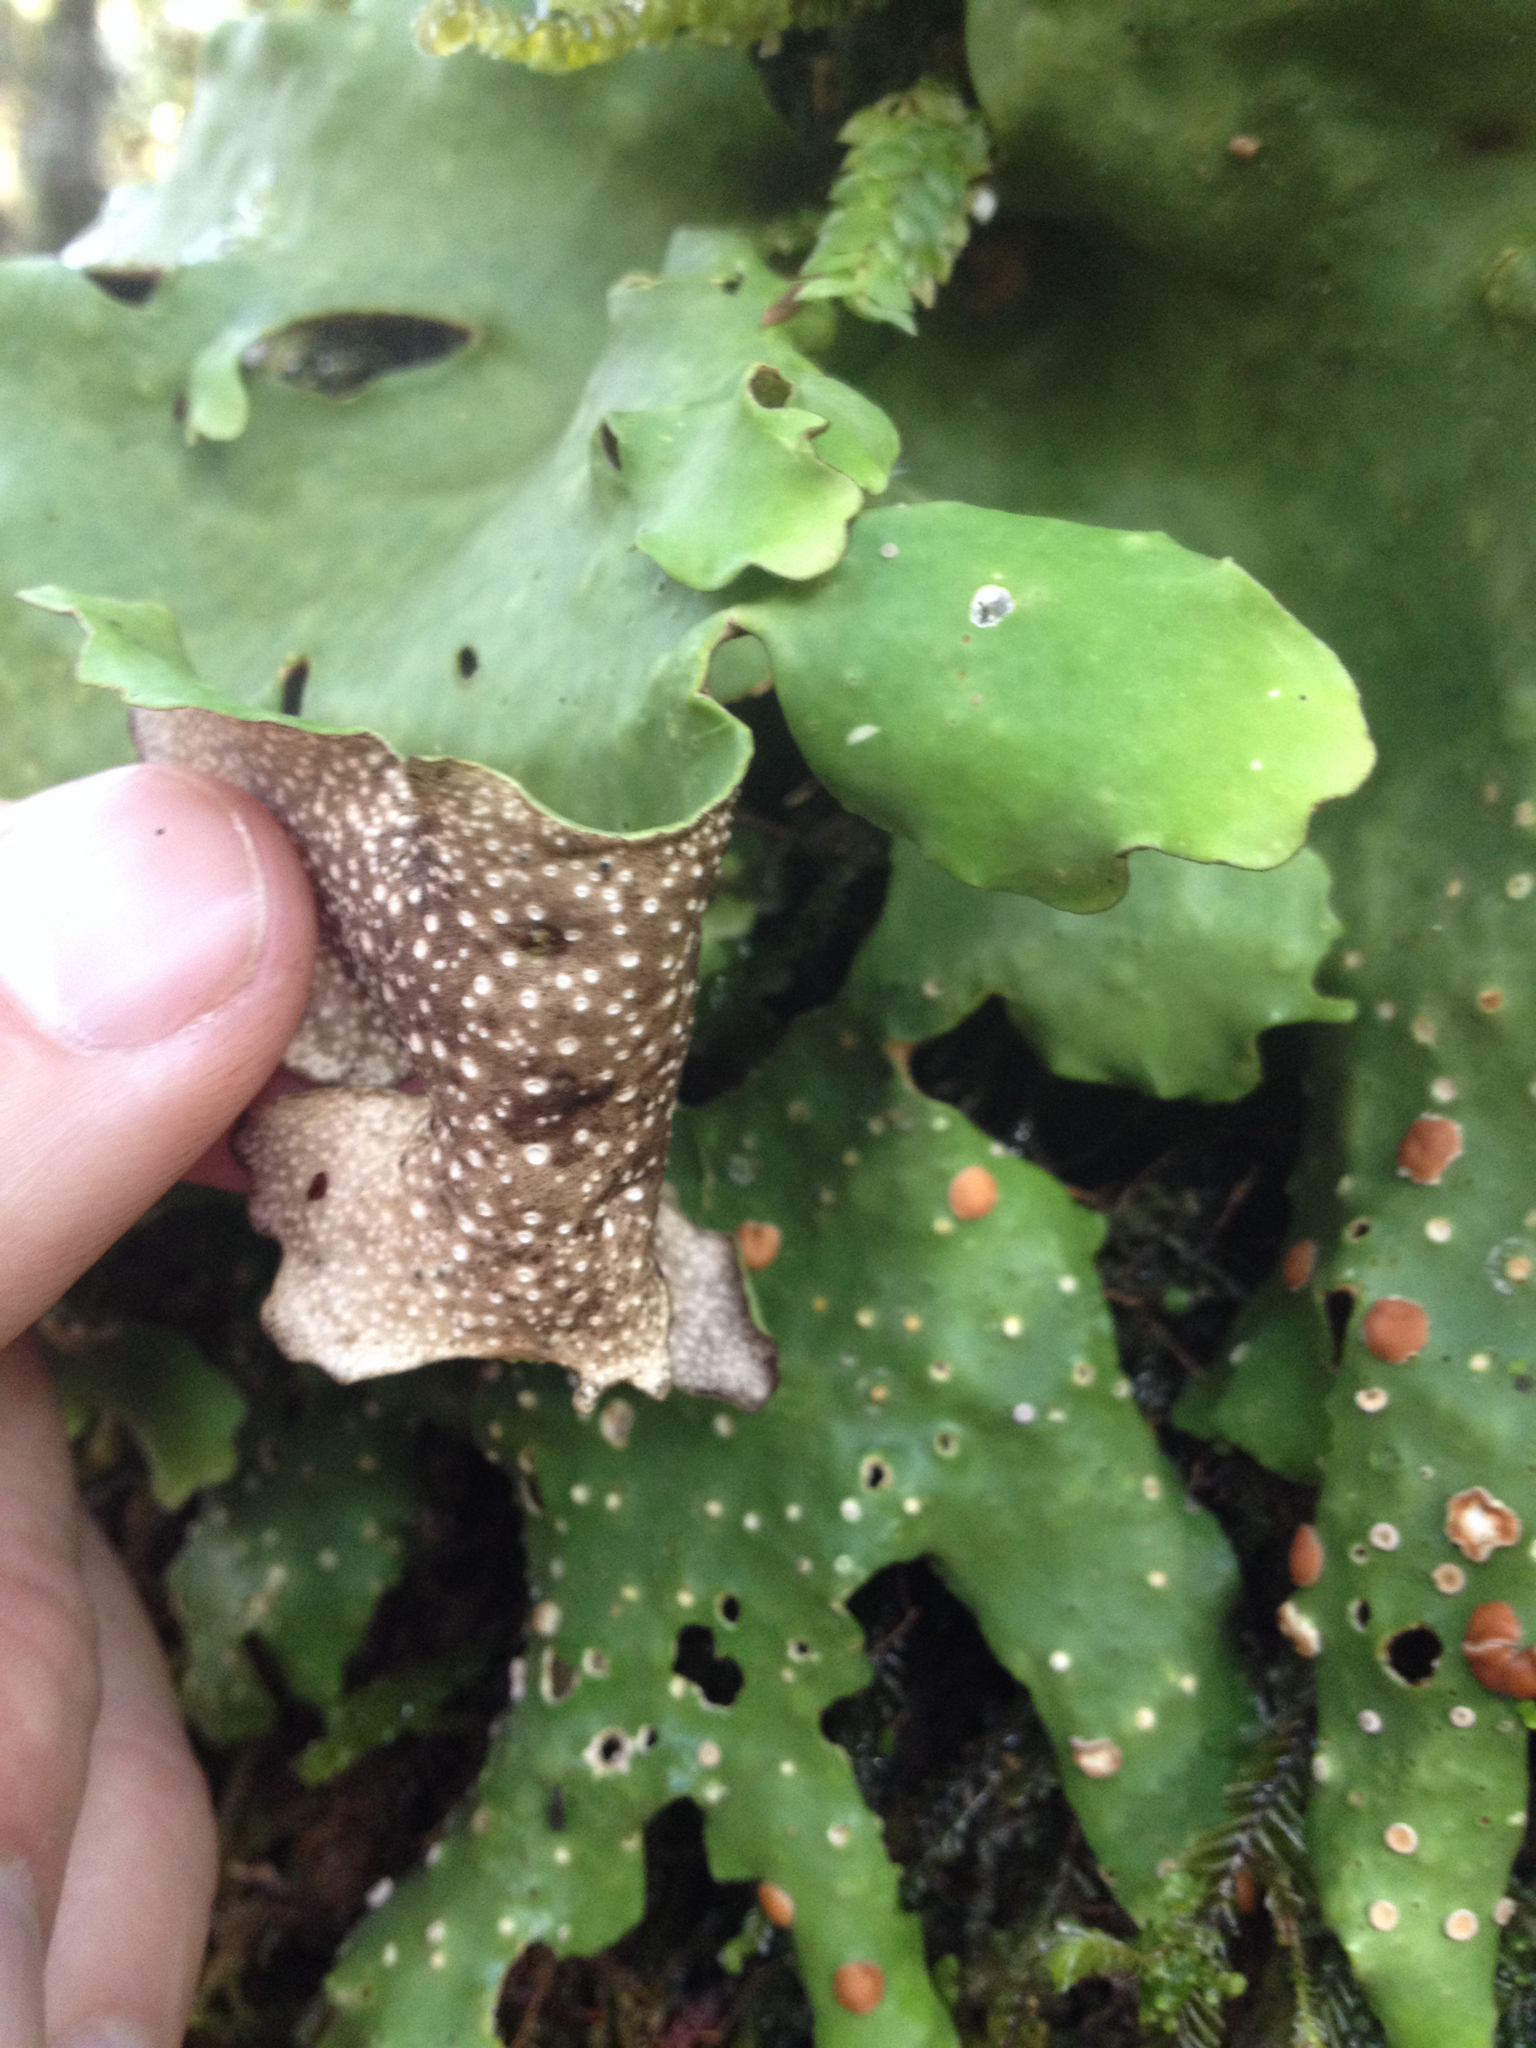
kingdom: Fungi
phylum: Ascomycota
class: Lecanoromycetes
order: Peltigerales
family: Lobariaceae
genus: Sticta
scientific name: Sticta latifrons
